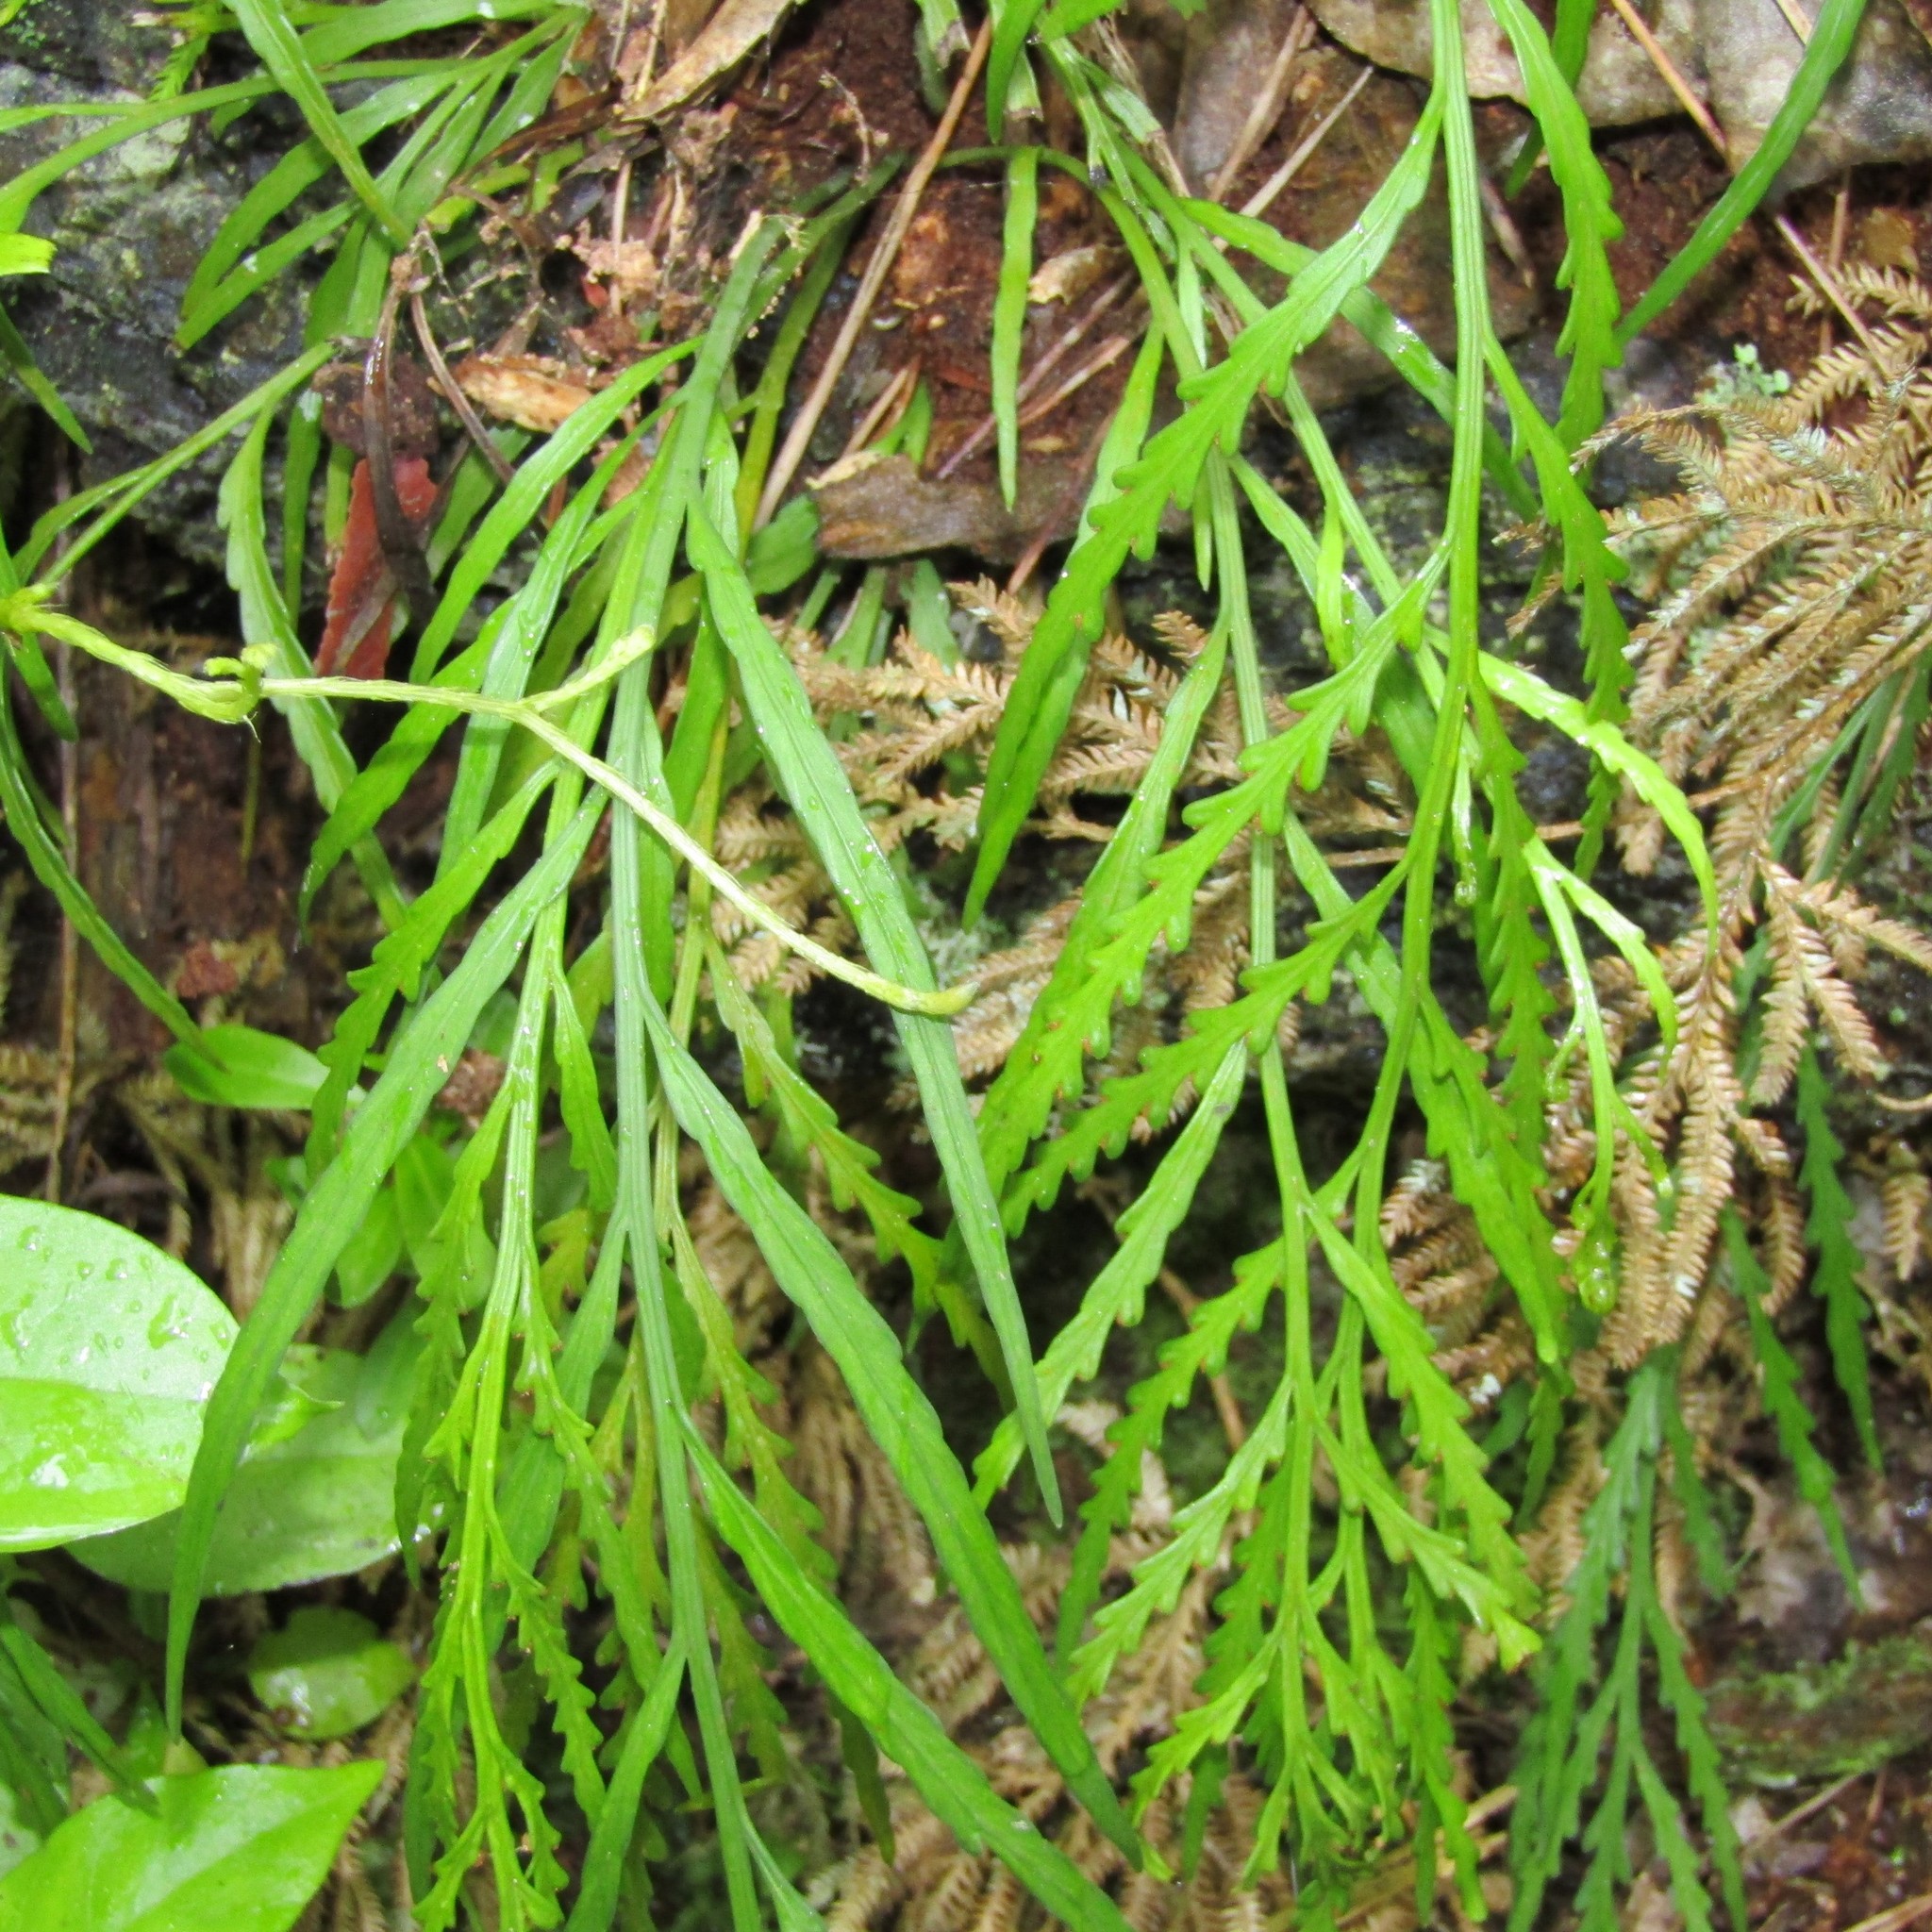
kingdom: Plantae
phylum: Tracheophyta
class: Polypodiopsida
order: Polypodiales
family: Aspleniaceae
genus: Asplenium
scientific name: Asplenium flaccidum
